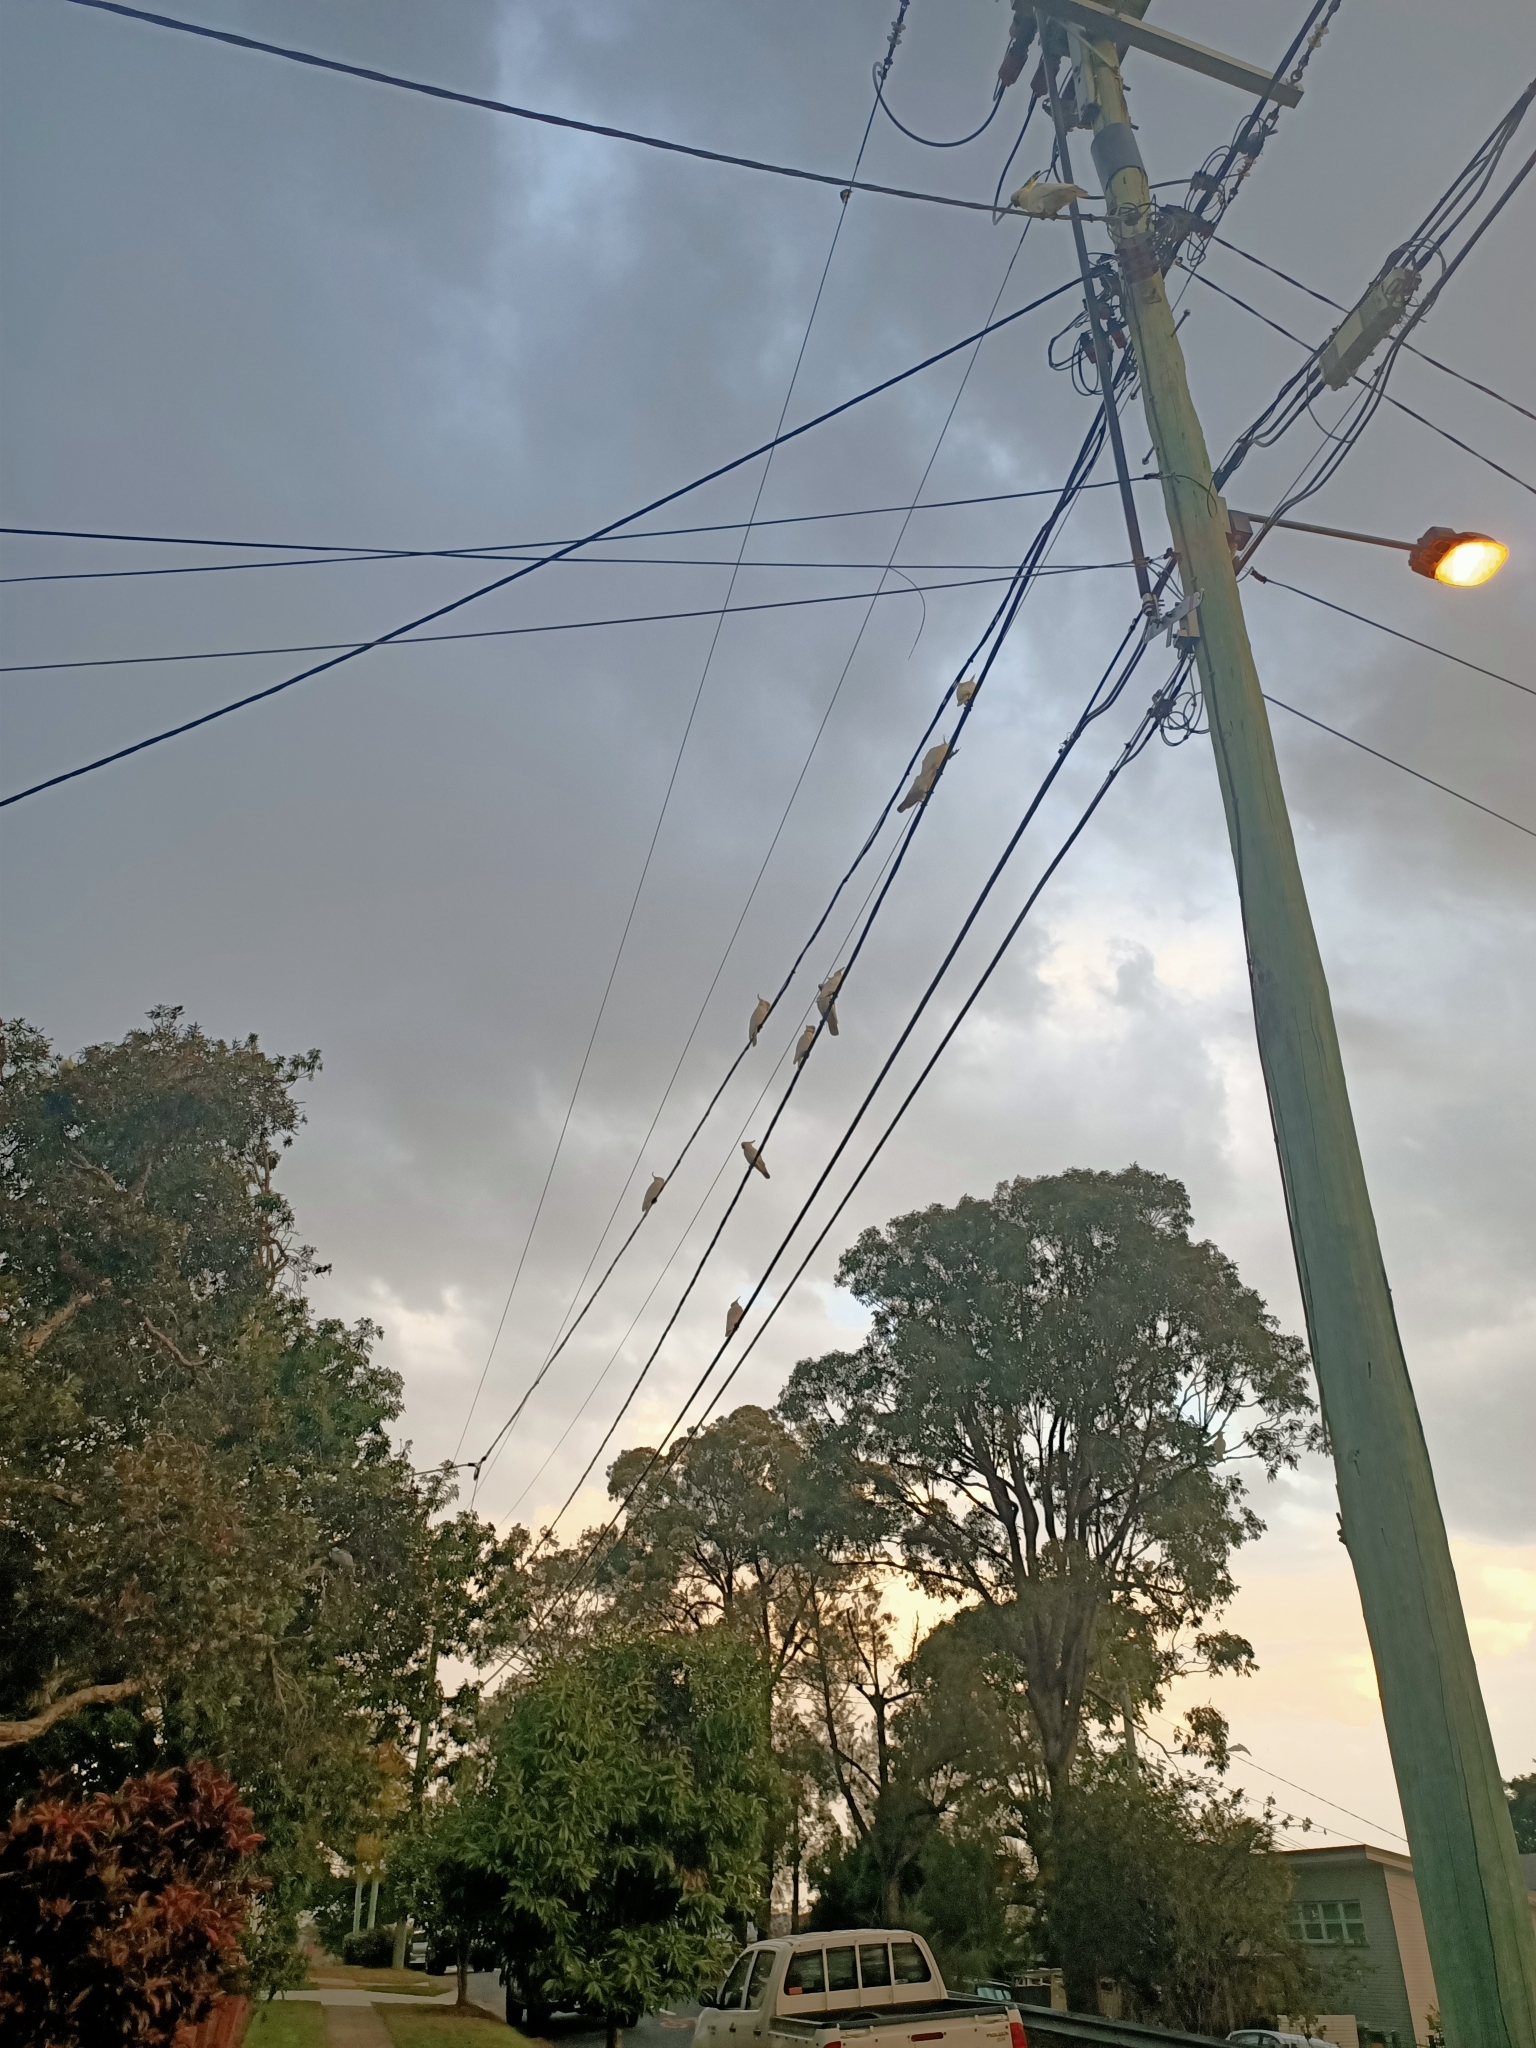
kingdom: Animalia
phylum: Chordata
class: Aves
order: Psittaciformes
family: Psittacidae
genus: Cacatua
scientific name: Cacatua galerita
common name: Sulphur-crested cockatoo
